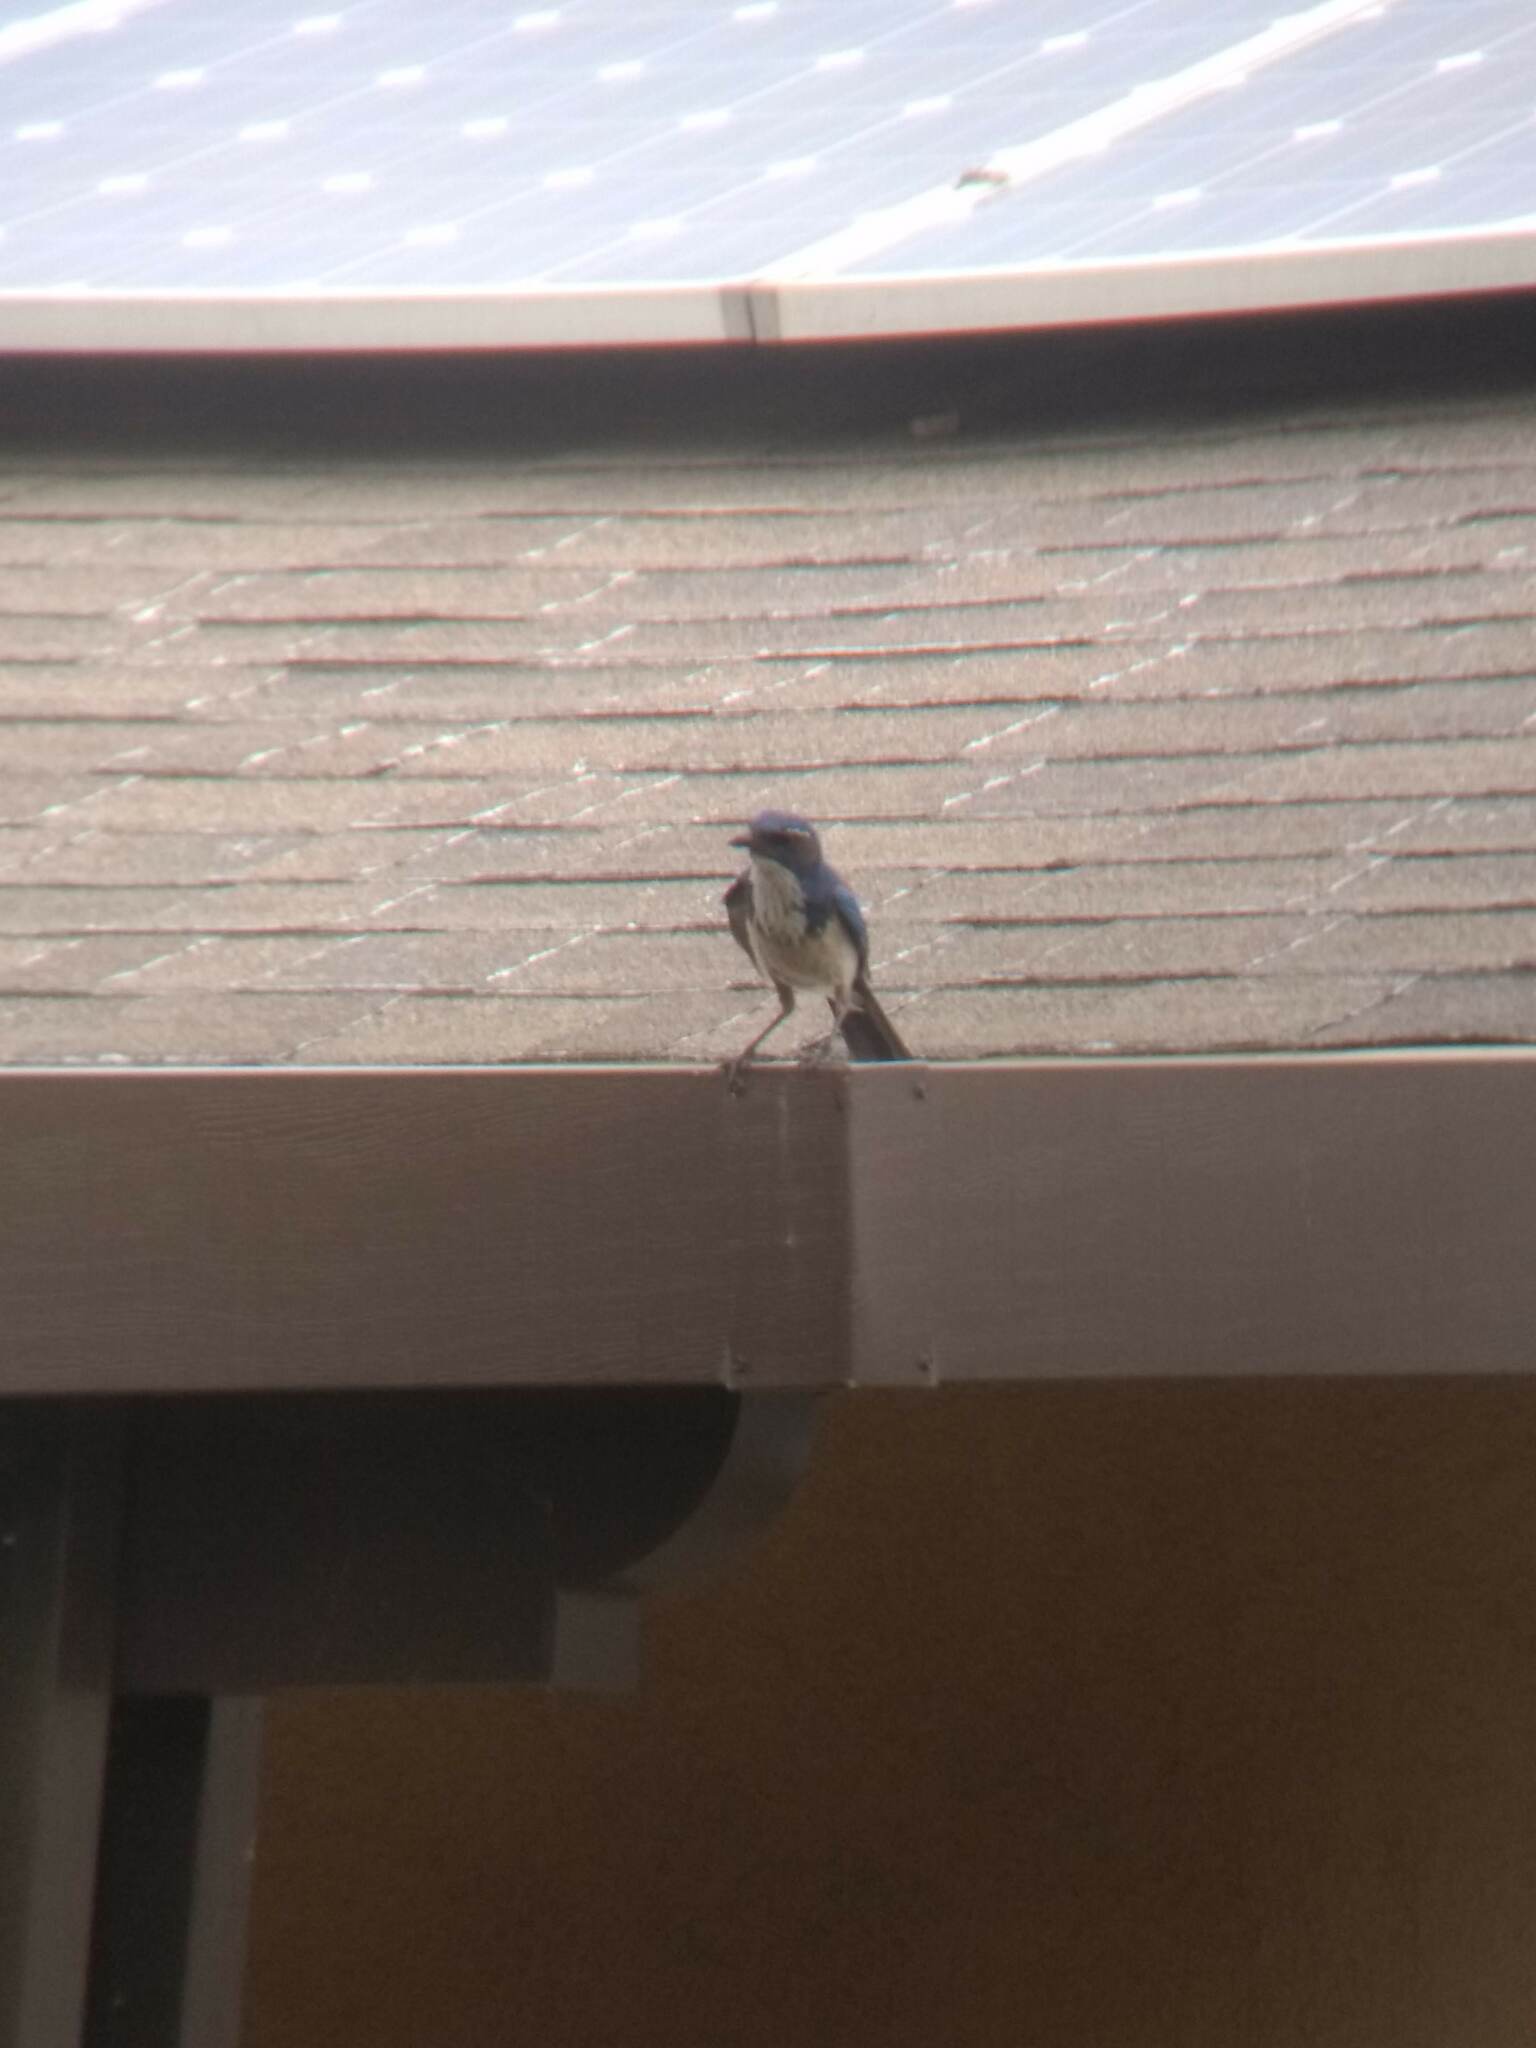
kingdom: Animalia
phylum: Chordata
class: Aves
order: Passeriformes
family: Corvidae
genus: Aphelocoma
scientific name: Aphelocoma californica
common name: California scrub-jay
